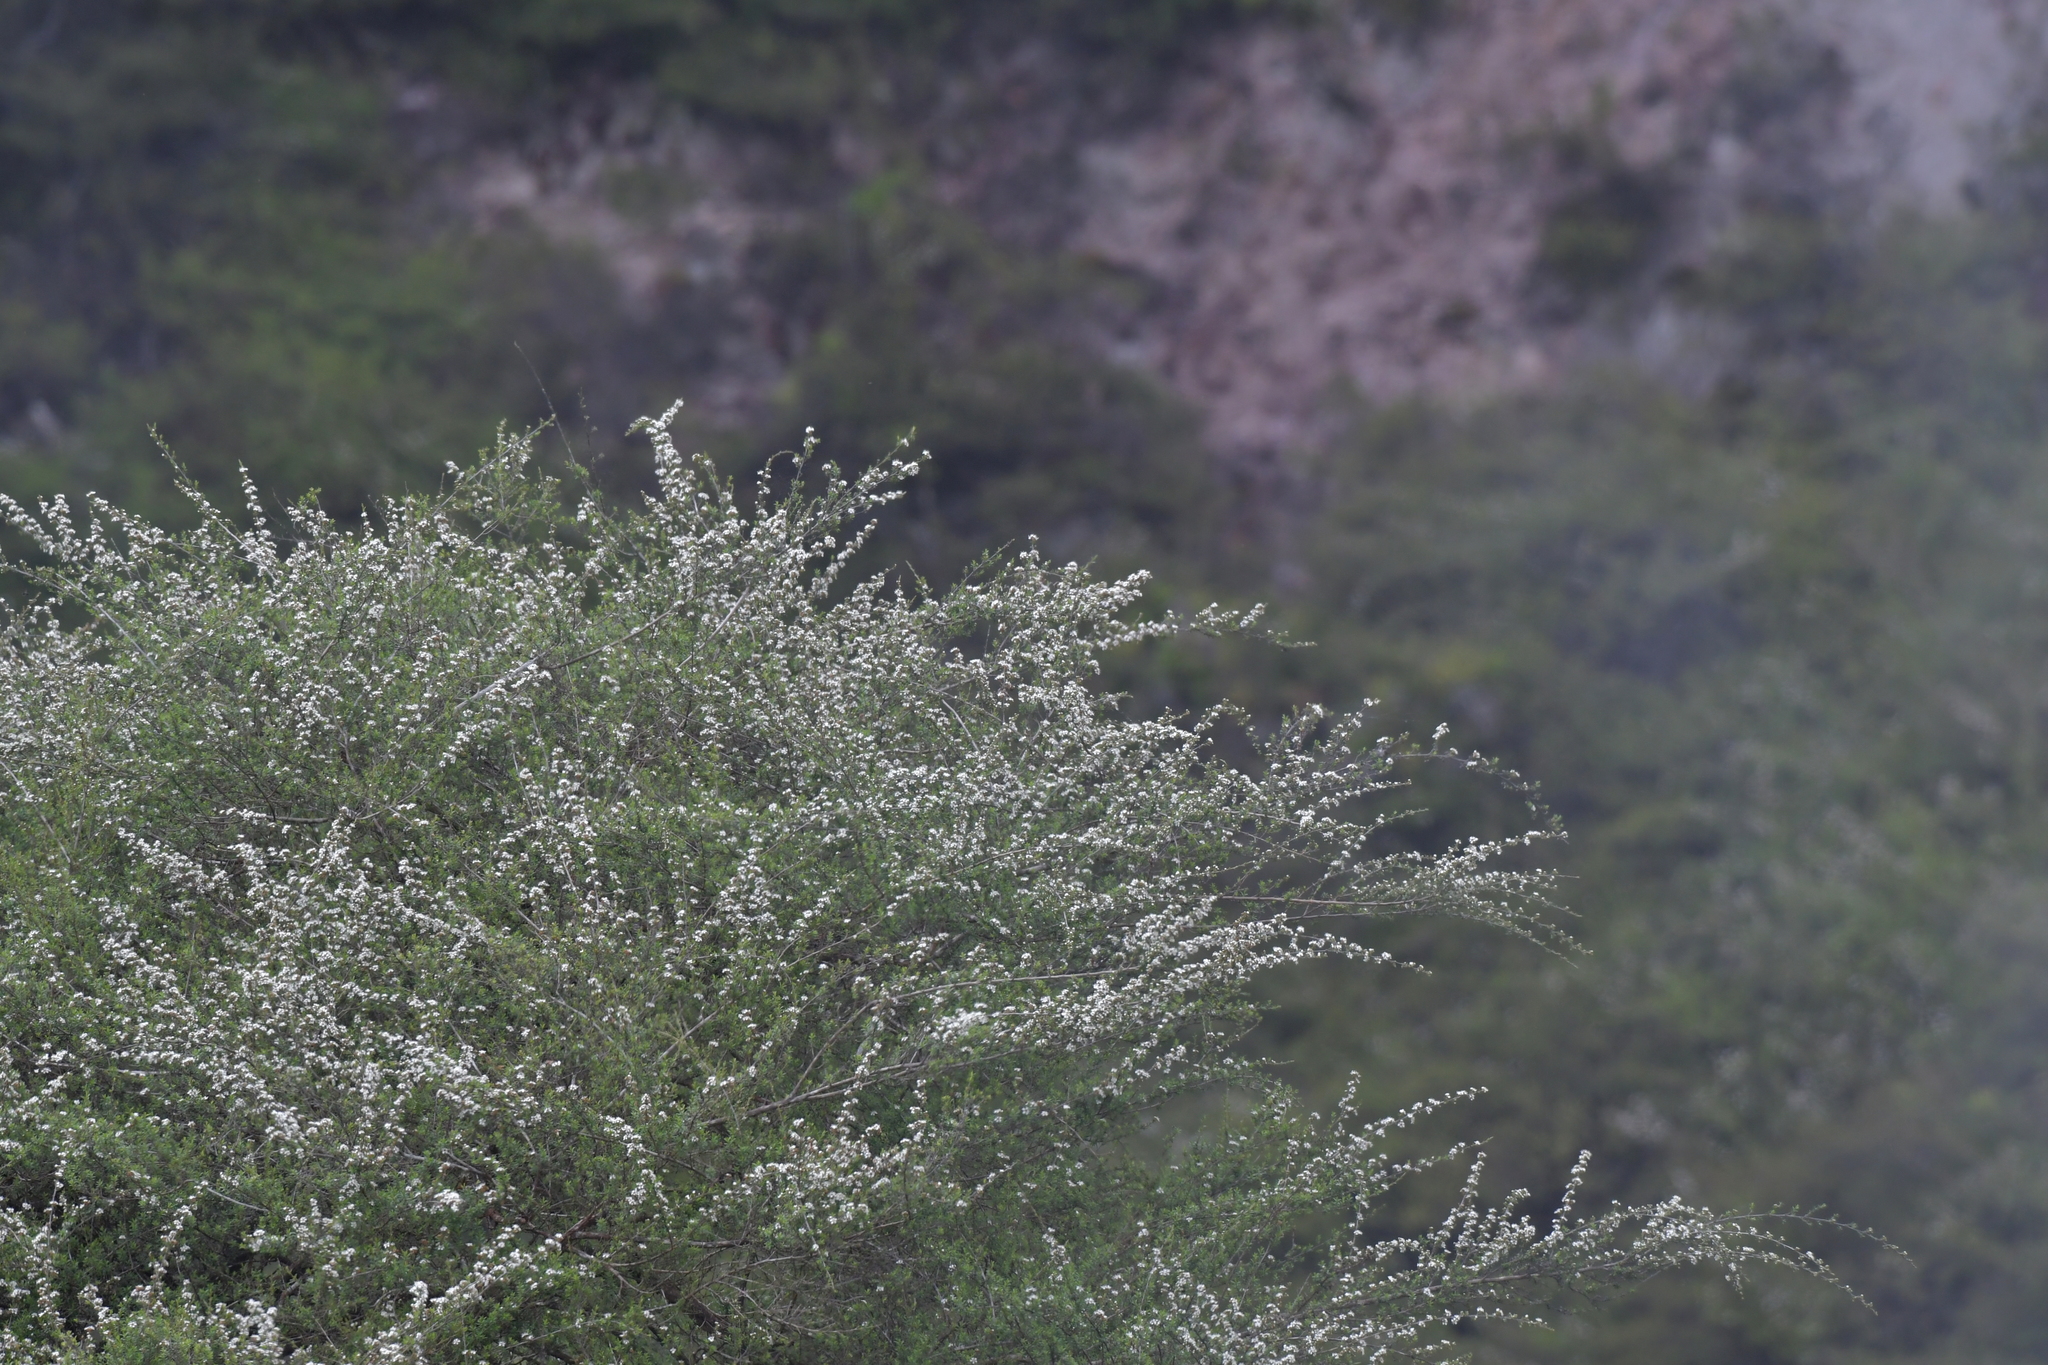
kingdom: Plantae
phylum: Tracheophyta
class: Magnoliopsida
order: Myrtales
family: Myrtaceae
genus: Kunzea
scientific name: Kunzea tenuicaulis
